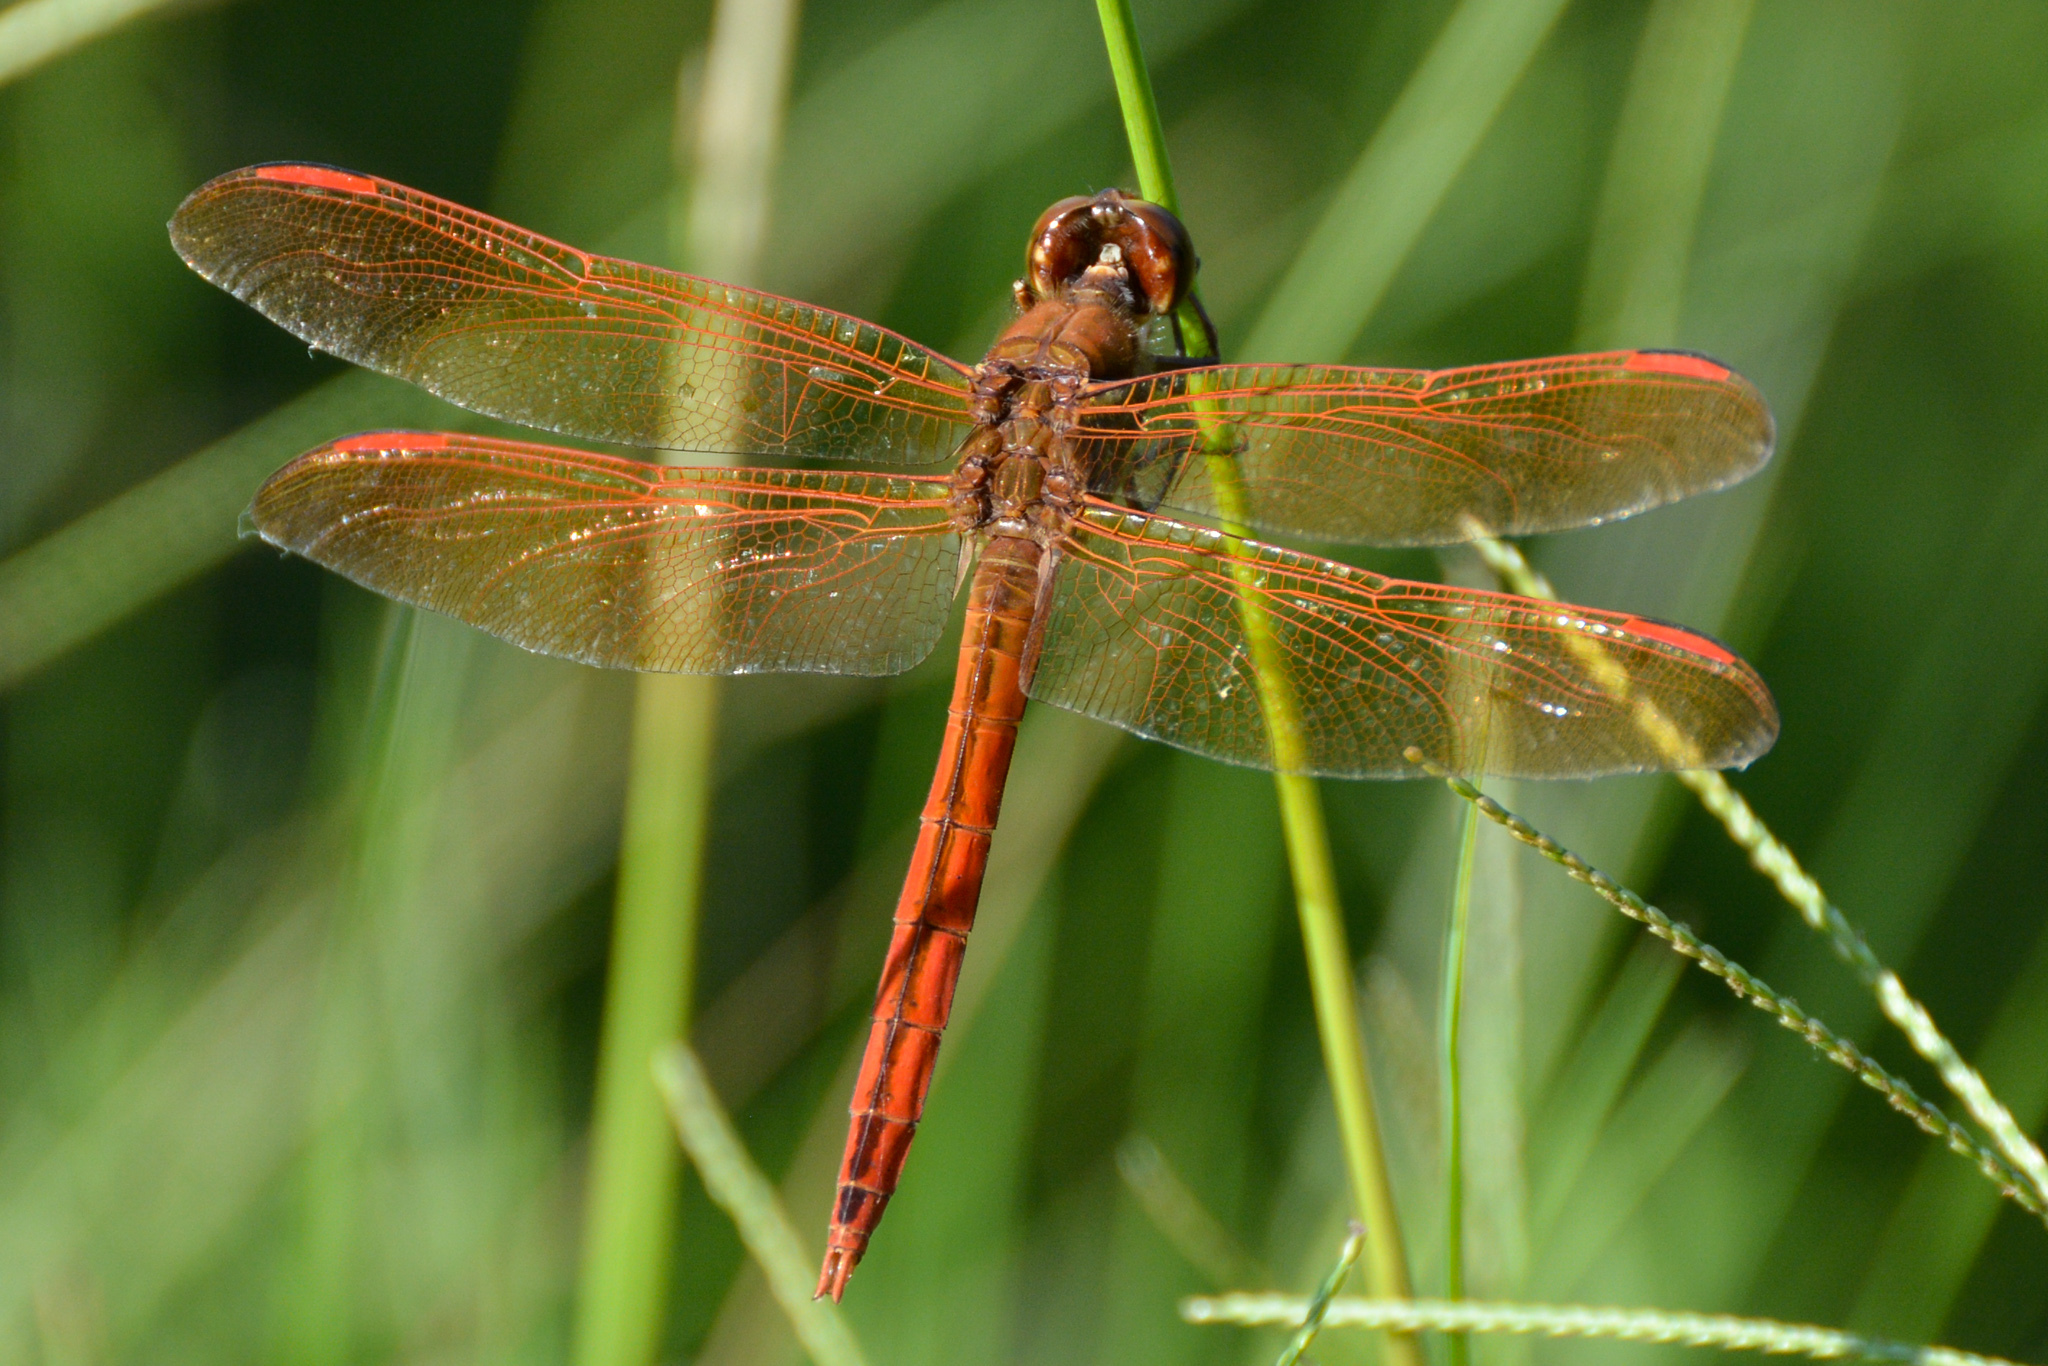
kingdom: Animalia
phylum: Arthropoda
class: Insecta
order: Odonata
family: Libellulidae
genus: Libellula
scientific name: Libellula auripennis
